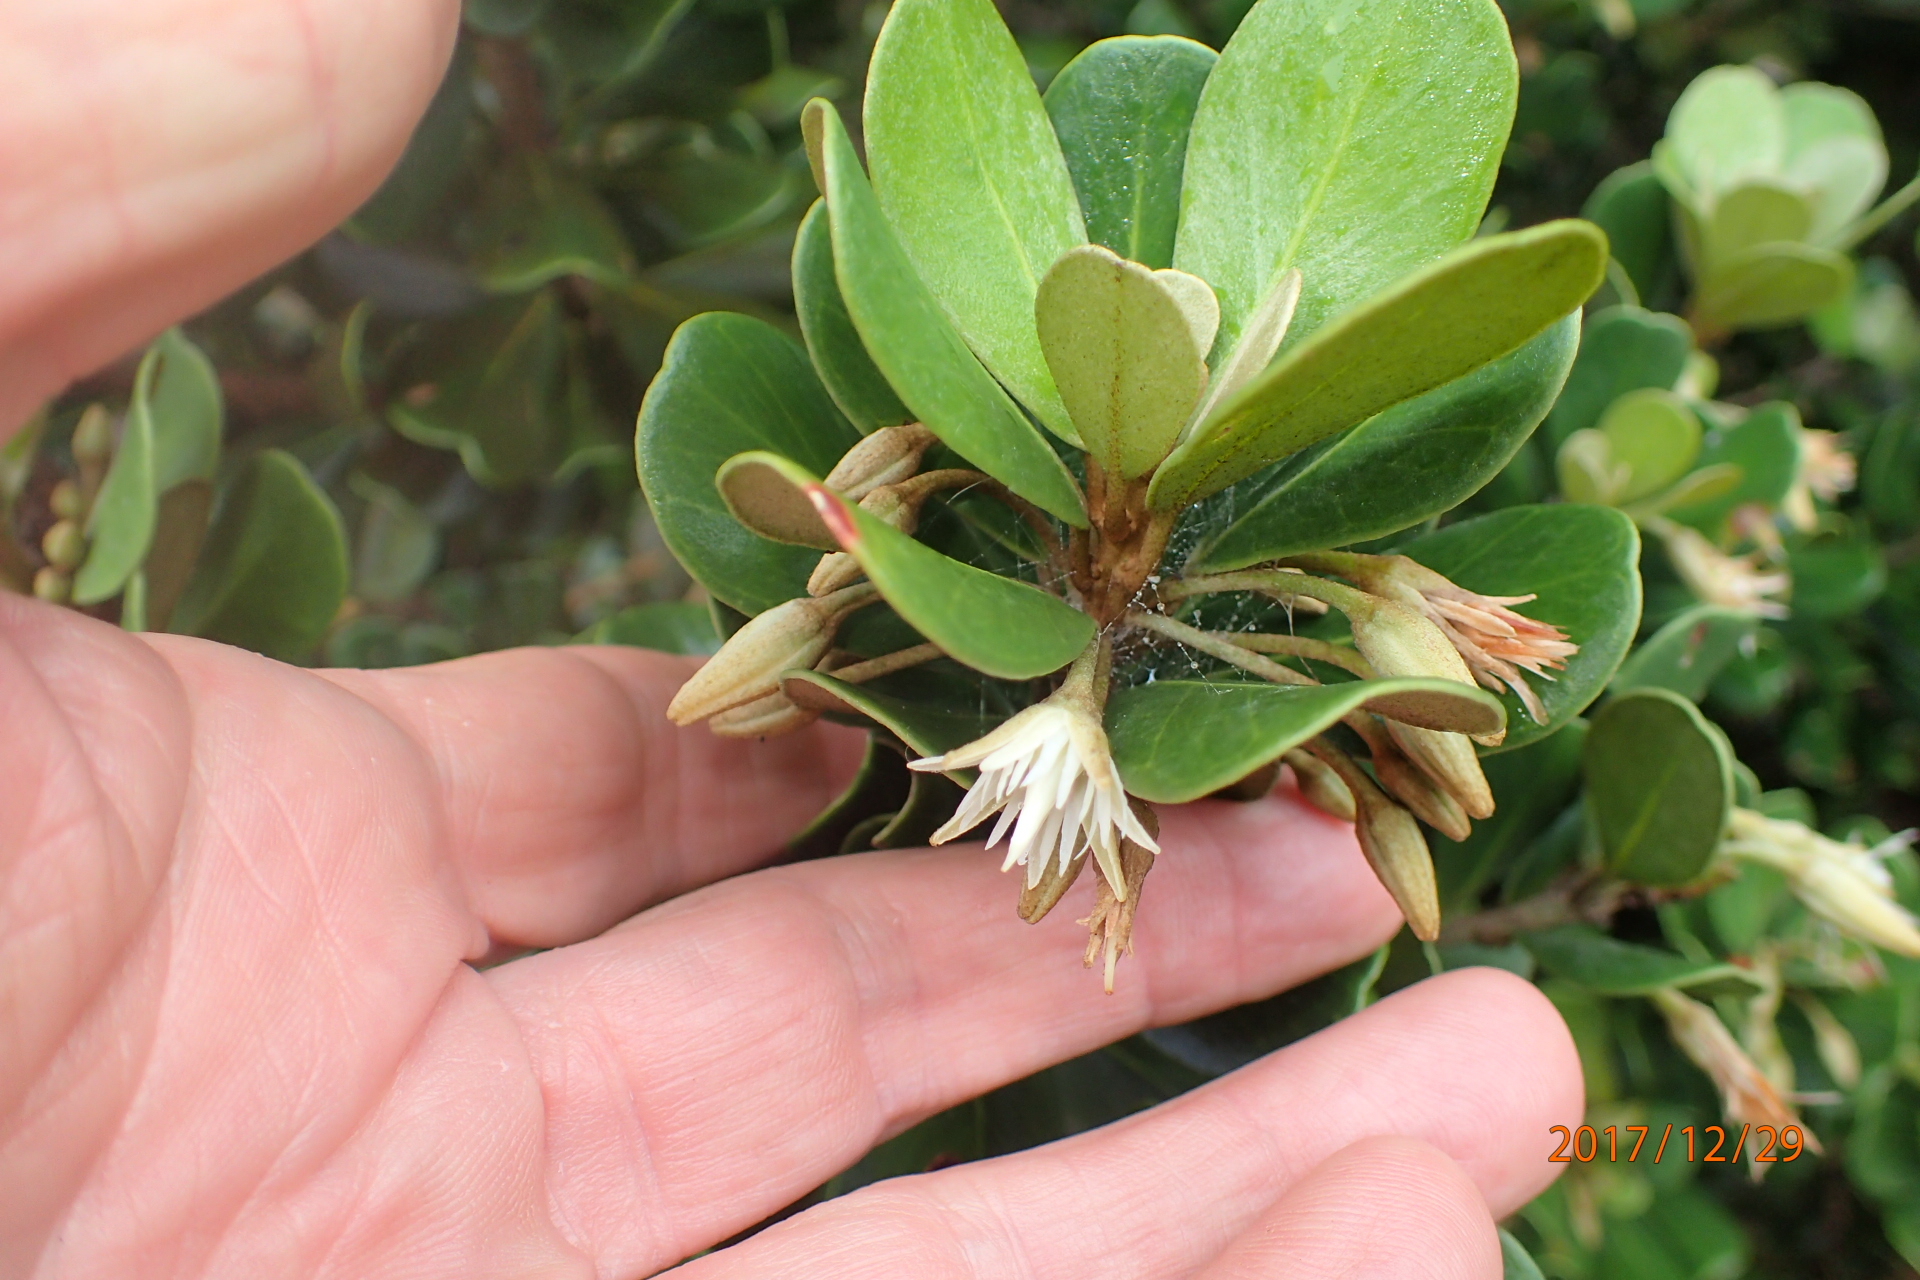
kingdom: Plantae
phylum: Tracheophyta
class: Magnoliopsida
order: Ericales
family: Sapotaceae
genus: Mimusops
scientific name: Mimusops caffra
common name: Coastal red milkwood
